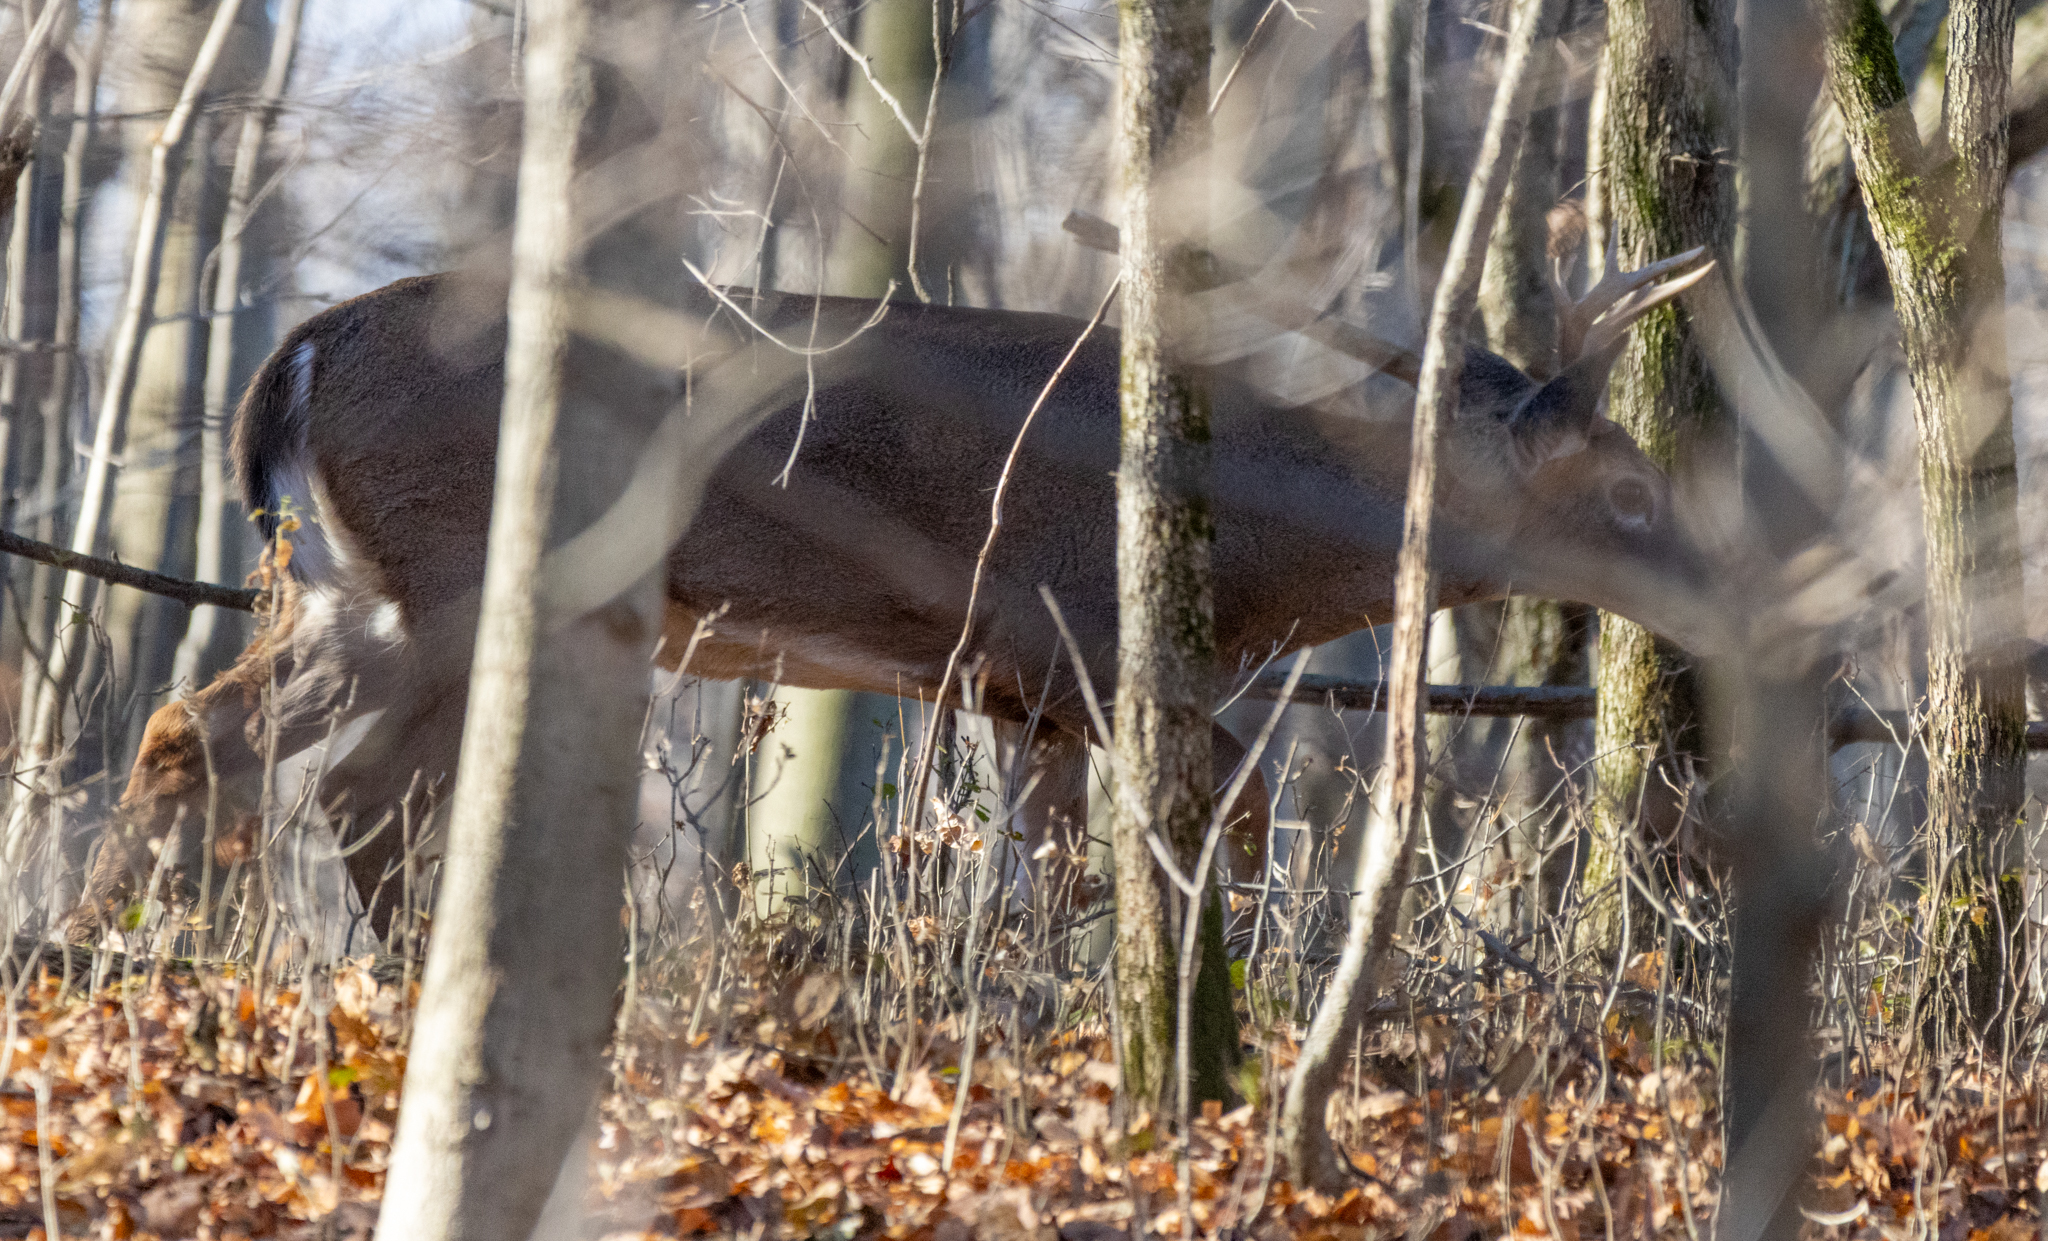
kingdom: Animalia
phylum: Chordata
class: Mammalia
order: Artiodactyla
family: Cervidae
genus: Odocoileus
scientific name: Odocoileus virginianus
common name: White-tailed deer
